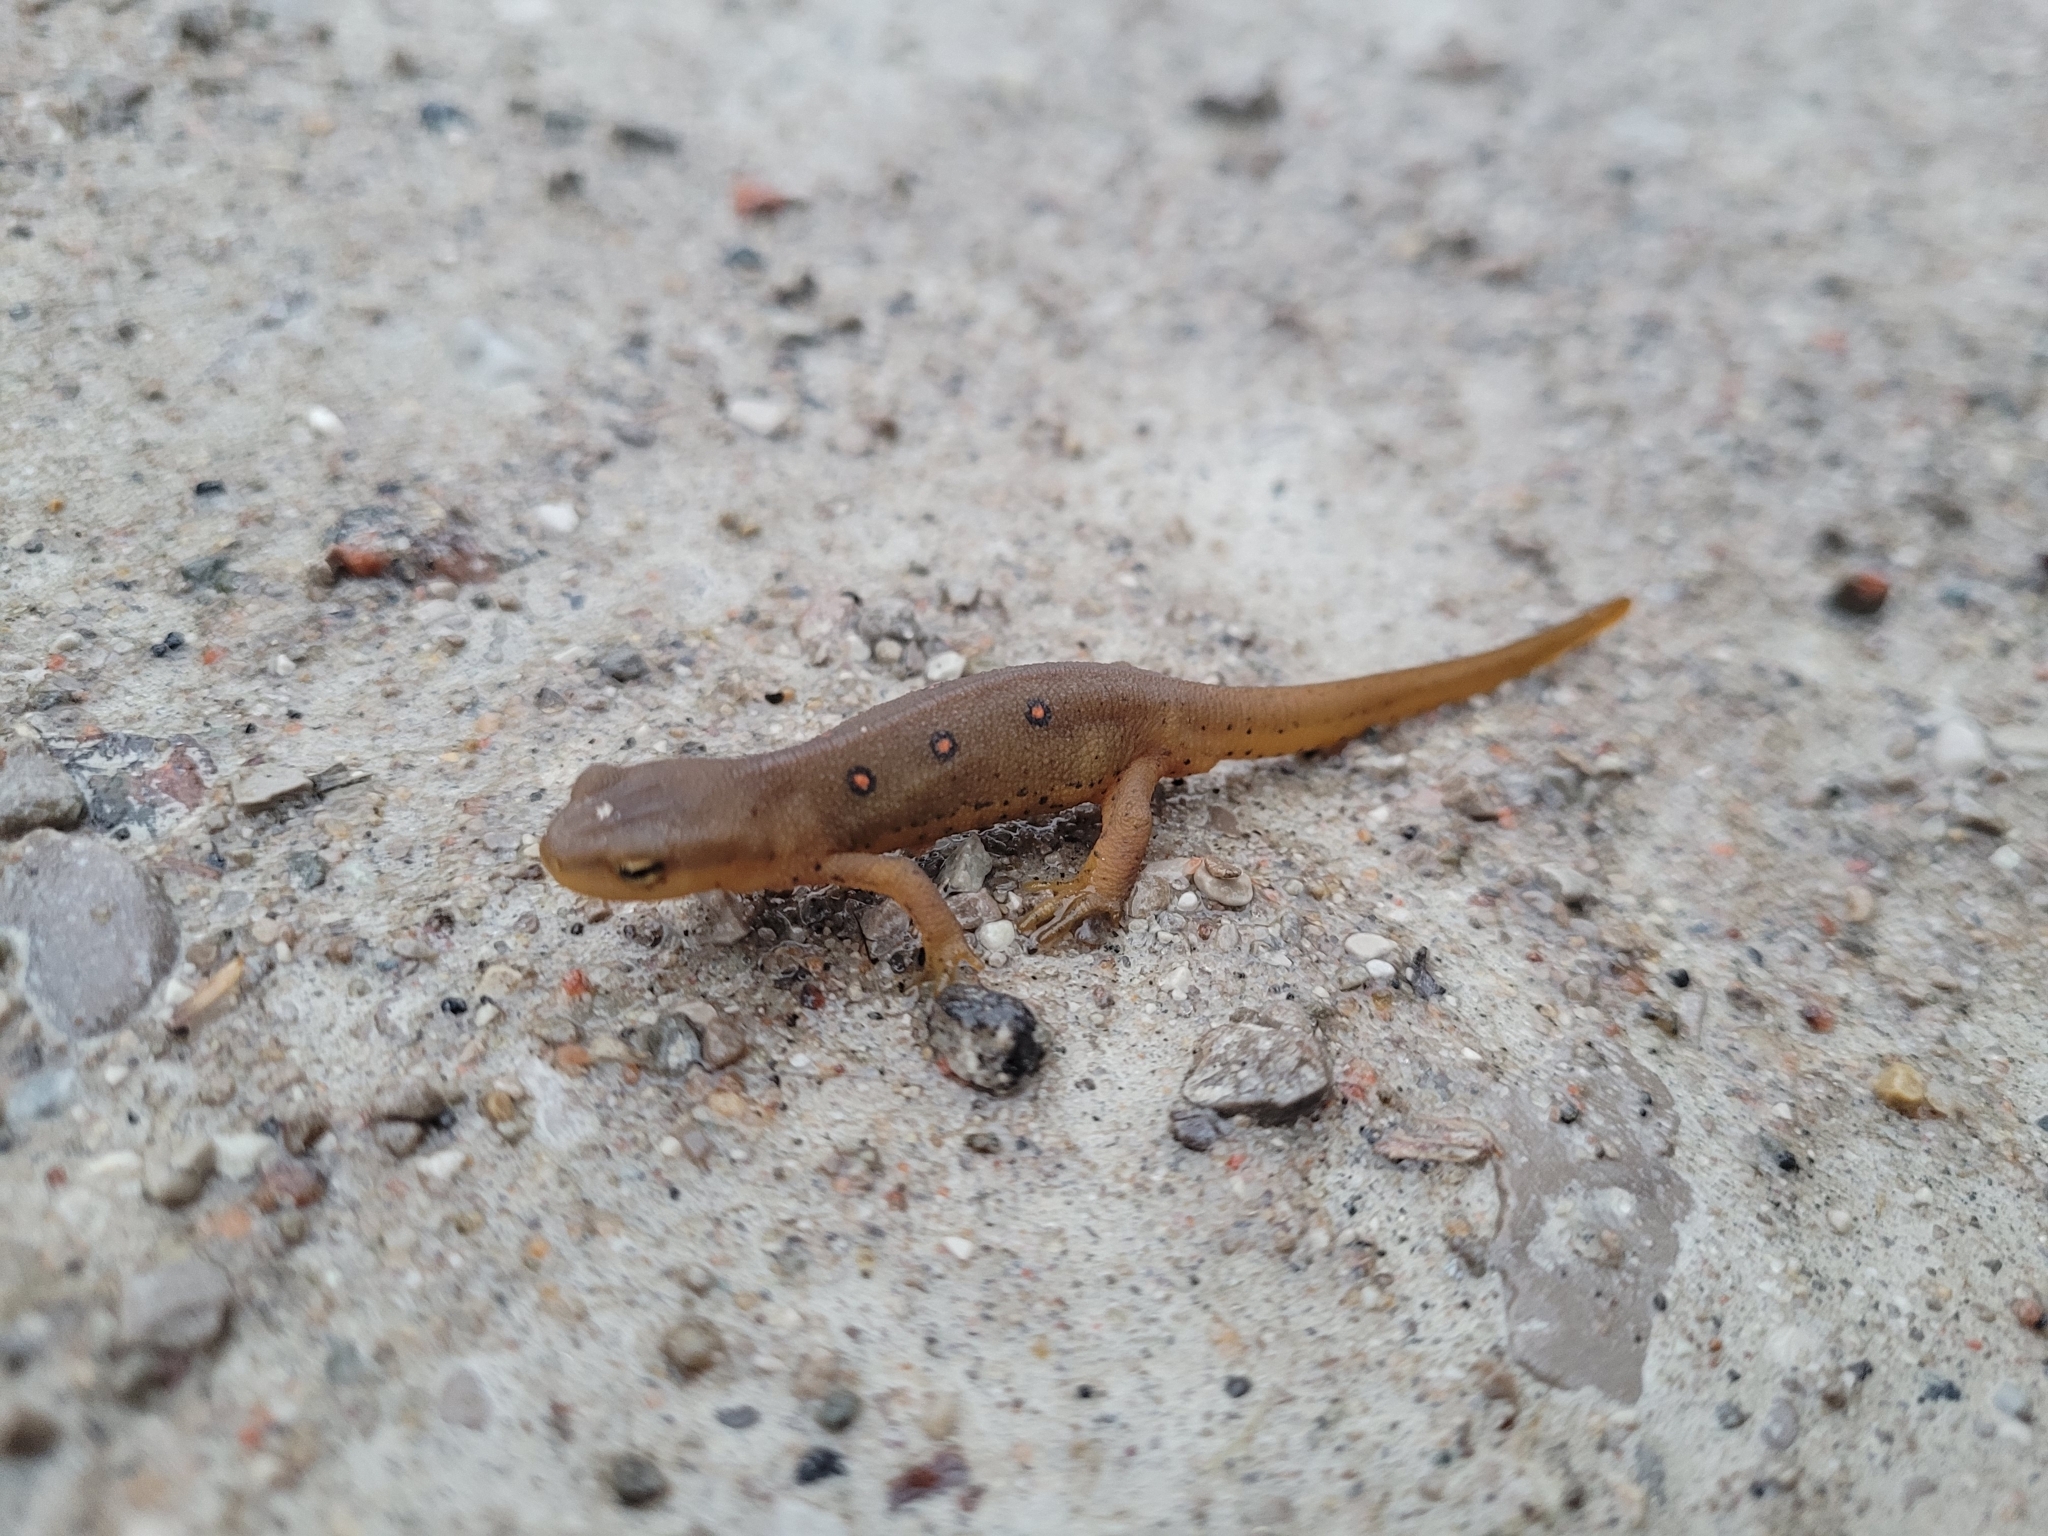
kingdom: Animalia
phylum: Chordata
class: Amphibia
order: Caudata
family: Salamandridae
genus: Notophthalmus
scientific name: Notophthalmus viridescens
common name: Eastern newt
